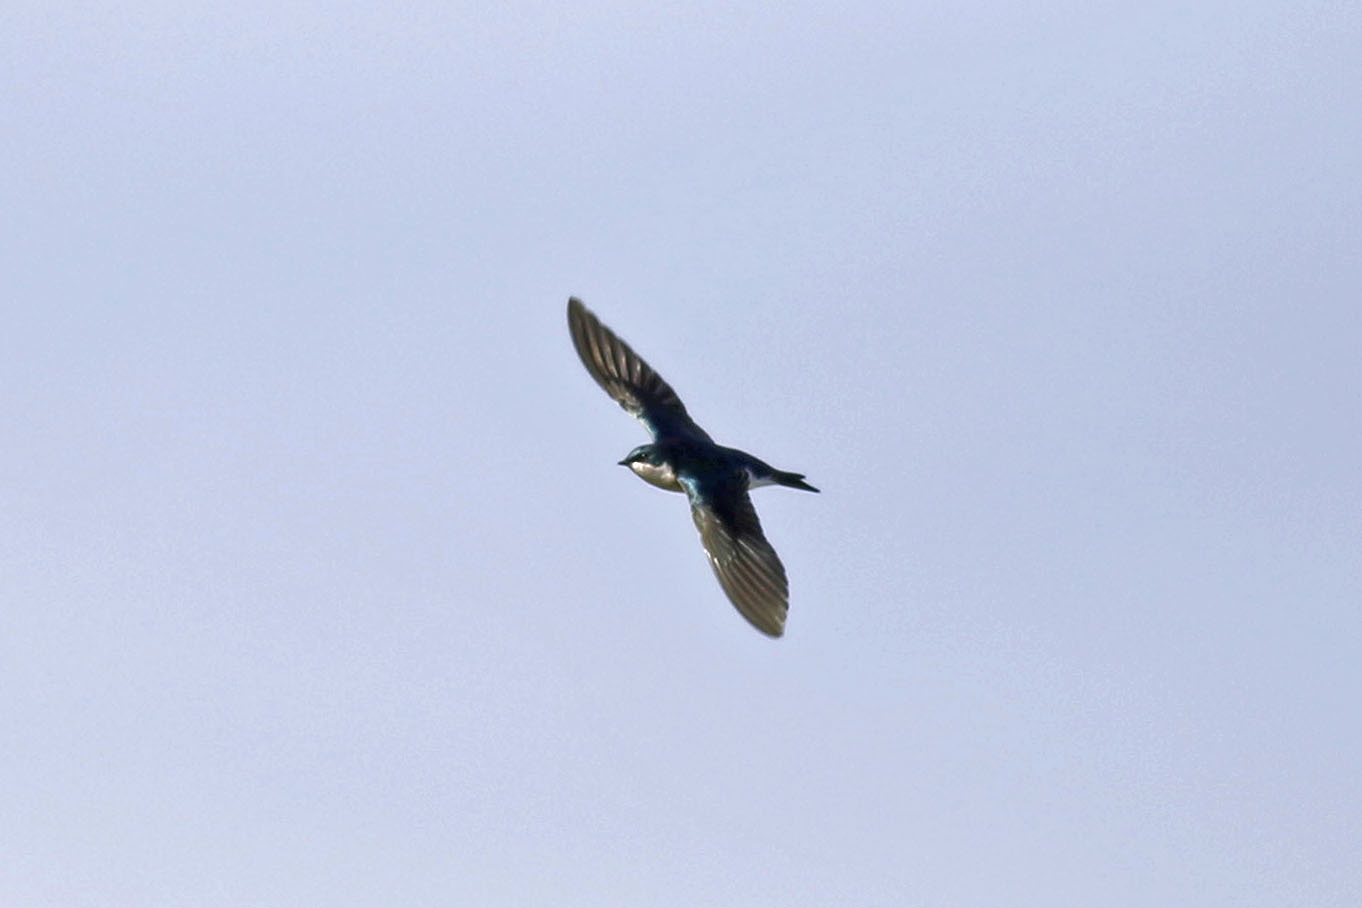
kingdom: Animalia
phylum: Chordata
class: Aves
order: Passeriformes
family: Hirundinidae
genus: Tachycineta
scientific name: Tachycineta bicolor
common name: Tree swallow
